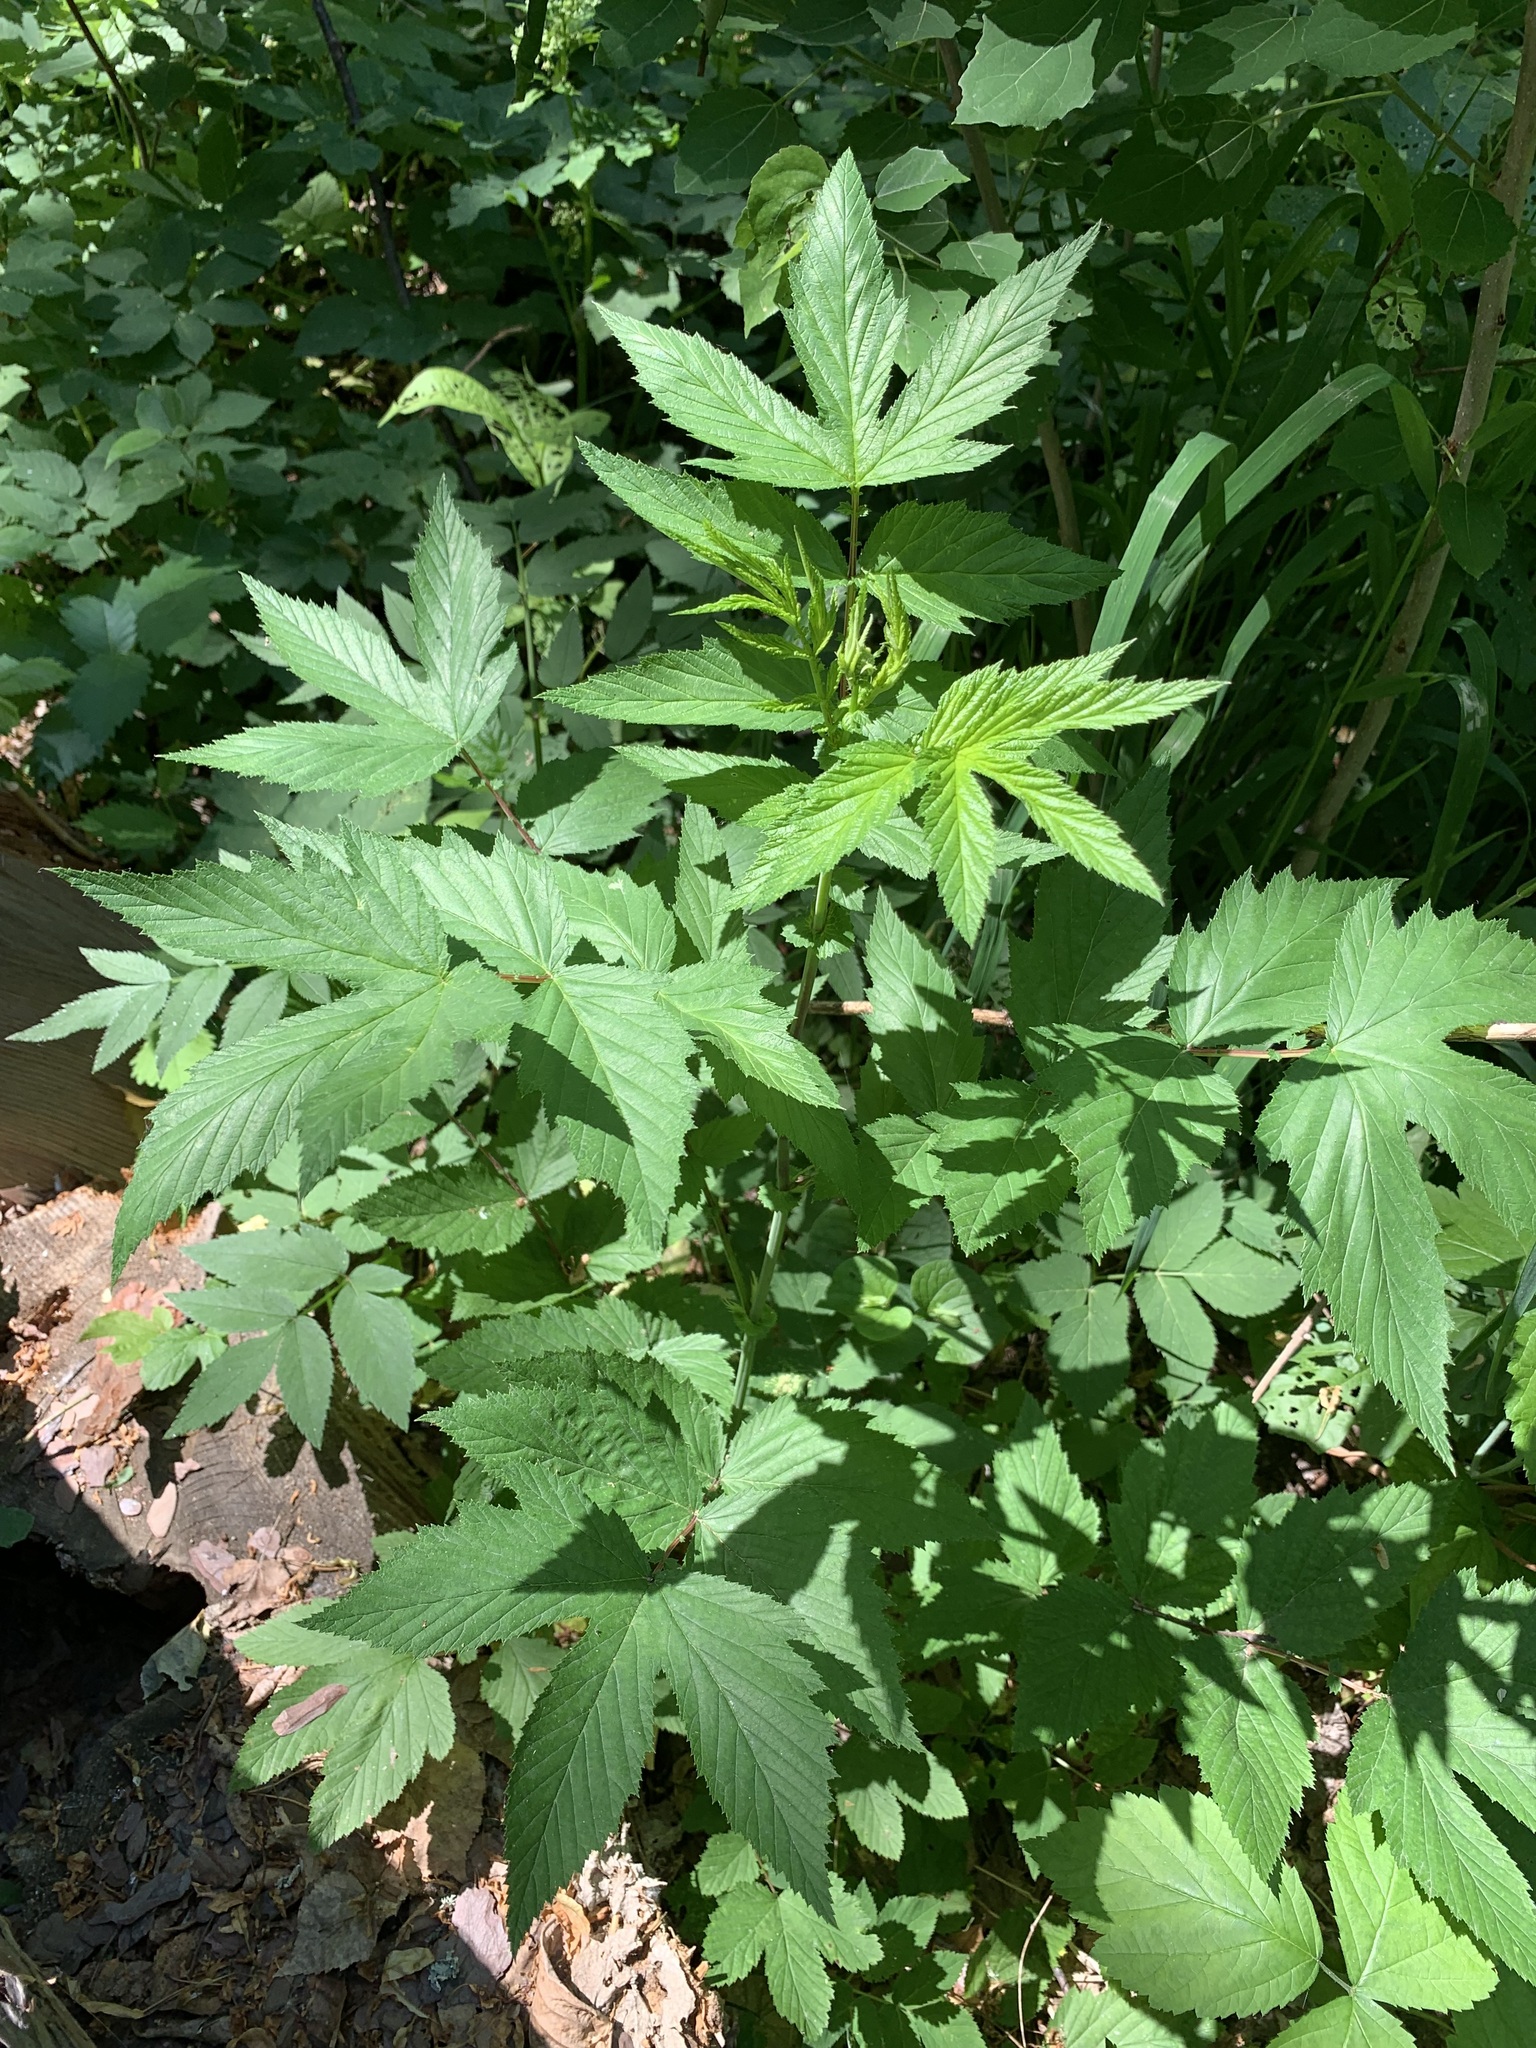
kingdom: Plantae
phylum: Tracheophyta
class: Magnoliopsida
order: Rosales
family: Rosaceae
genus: Filipendula
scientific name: Filipendula ulmaria
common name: Meadowsweet
